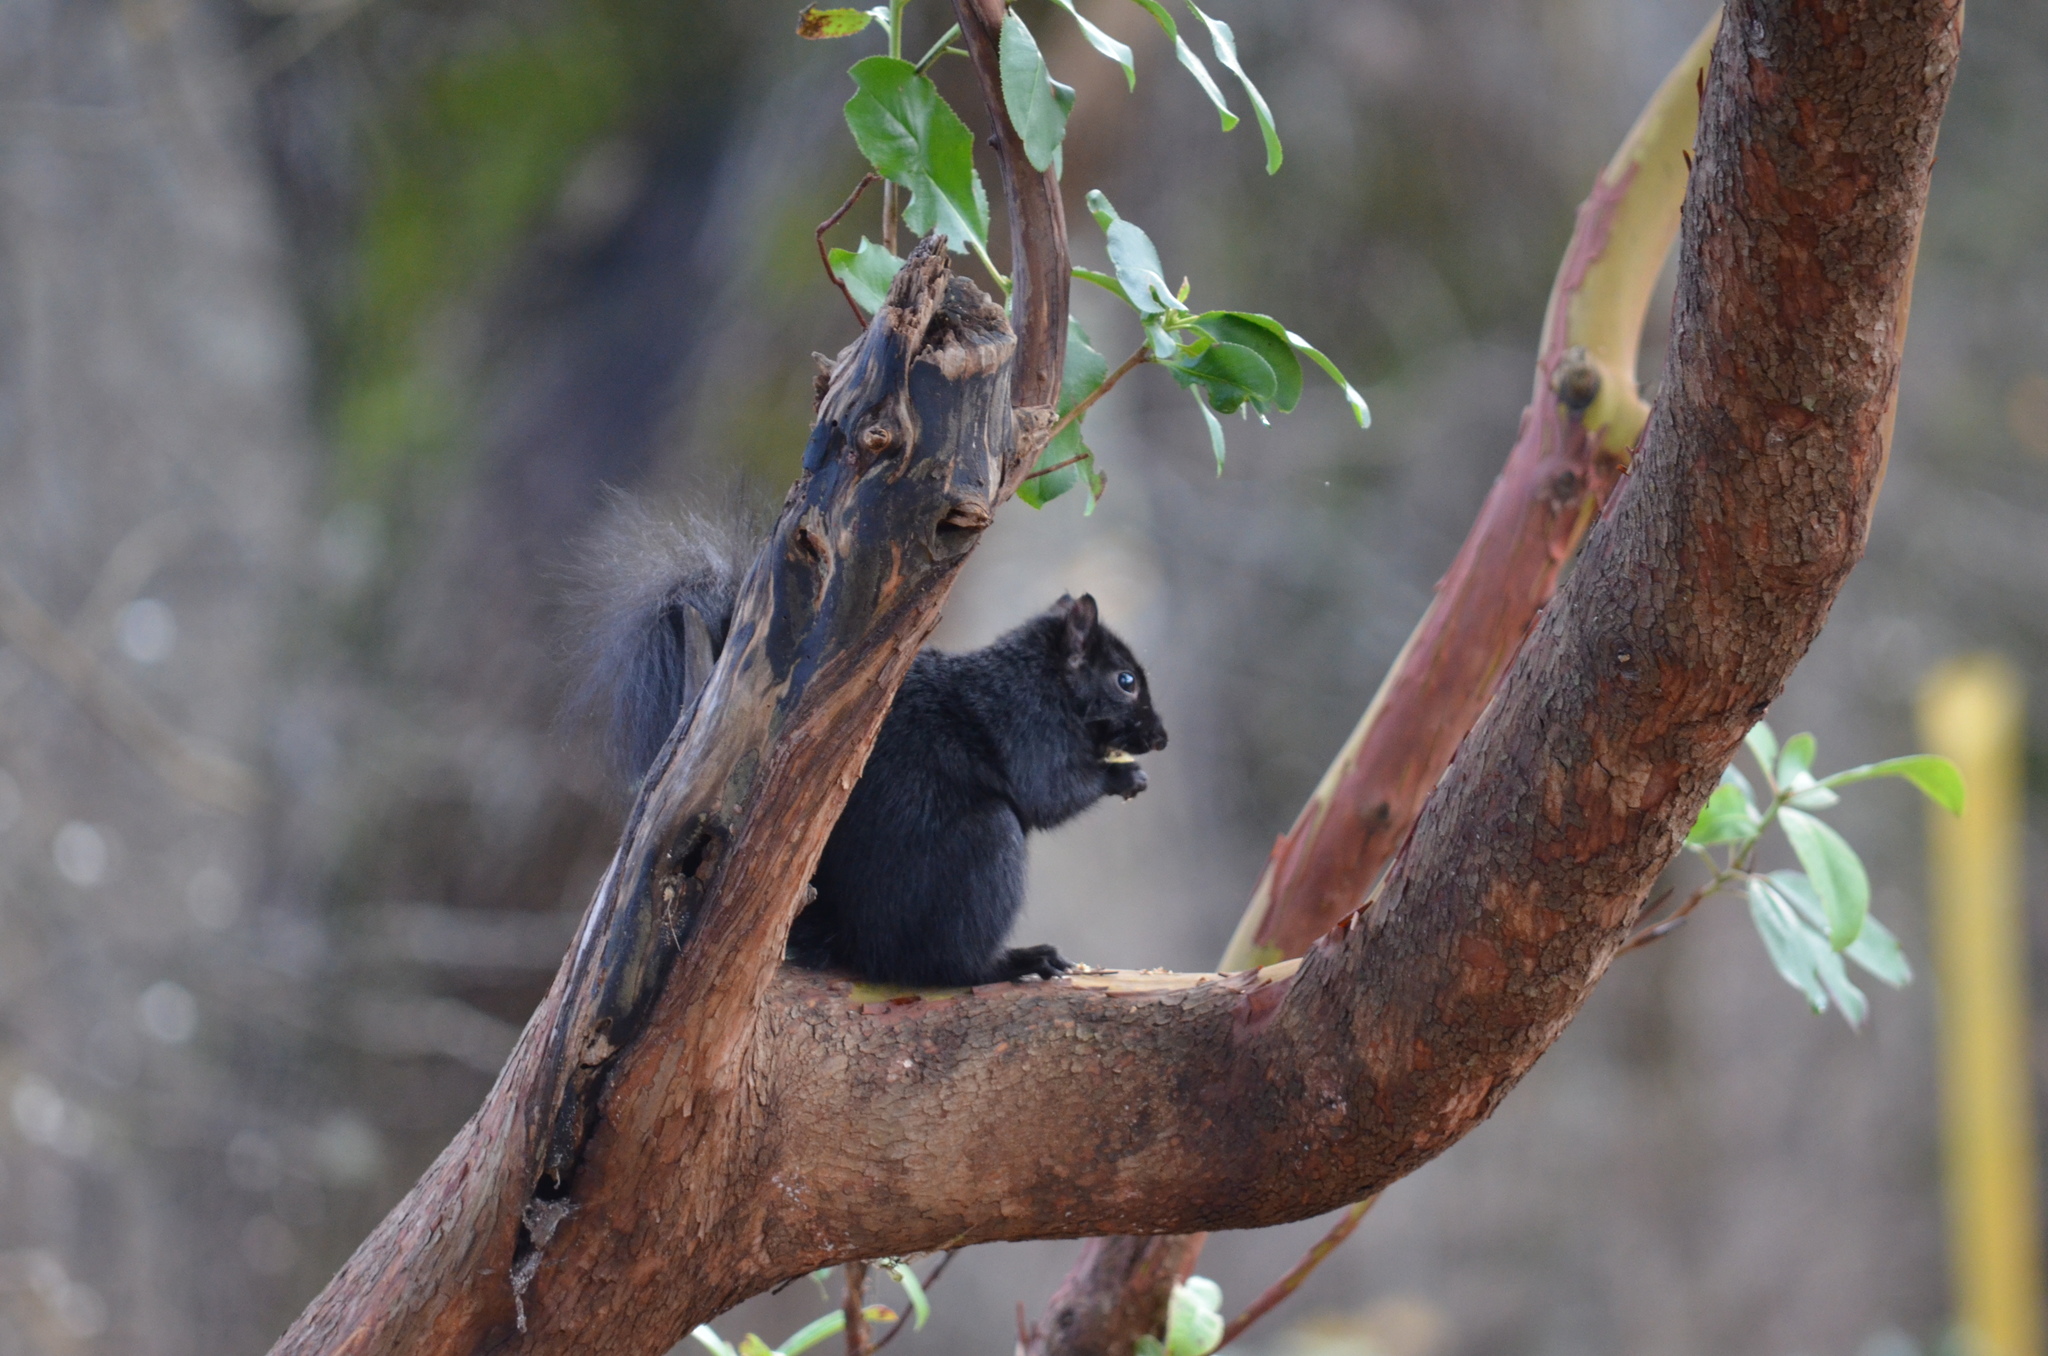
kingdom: Animalia
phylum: Chordata
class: Mammalia
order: Rodentia
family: Sciuridae
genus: Sciurus
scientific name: Sciurus carolinensis
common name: Eastern gray squirrel
